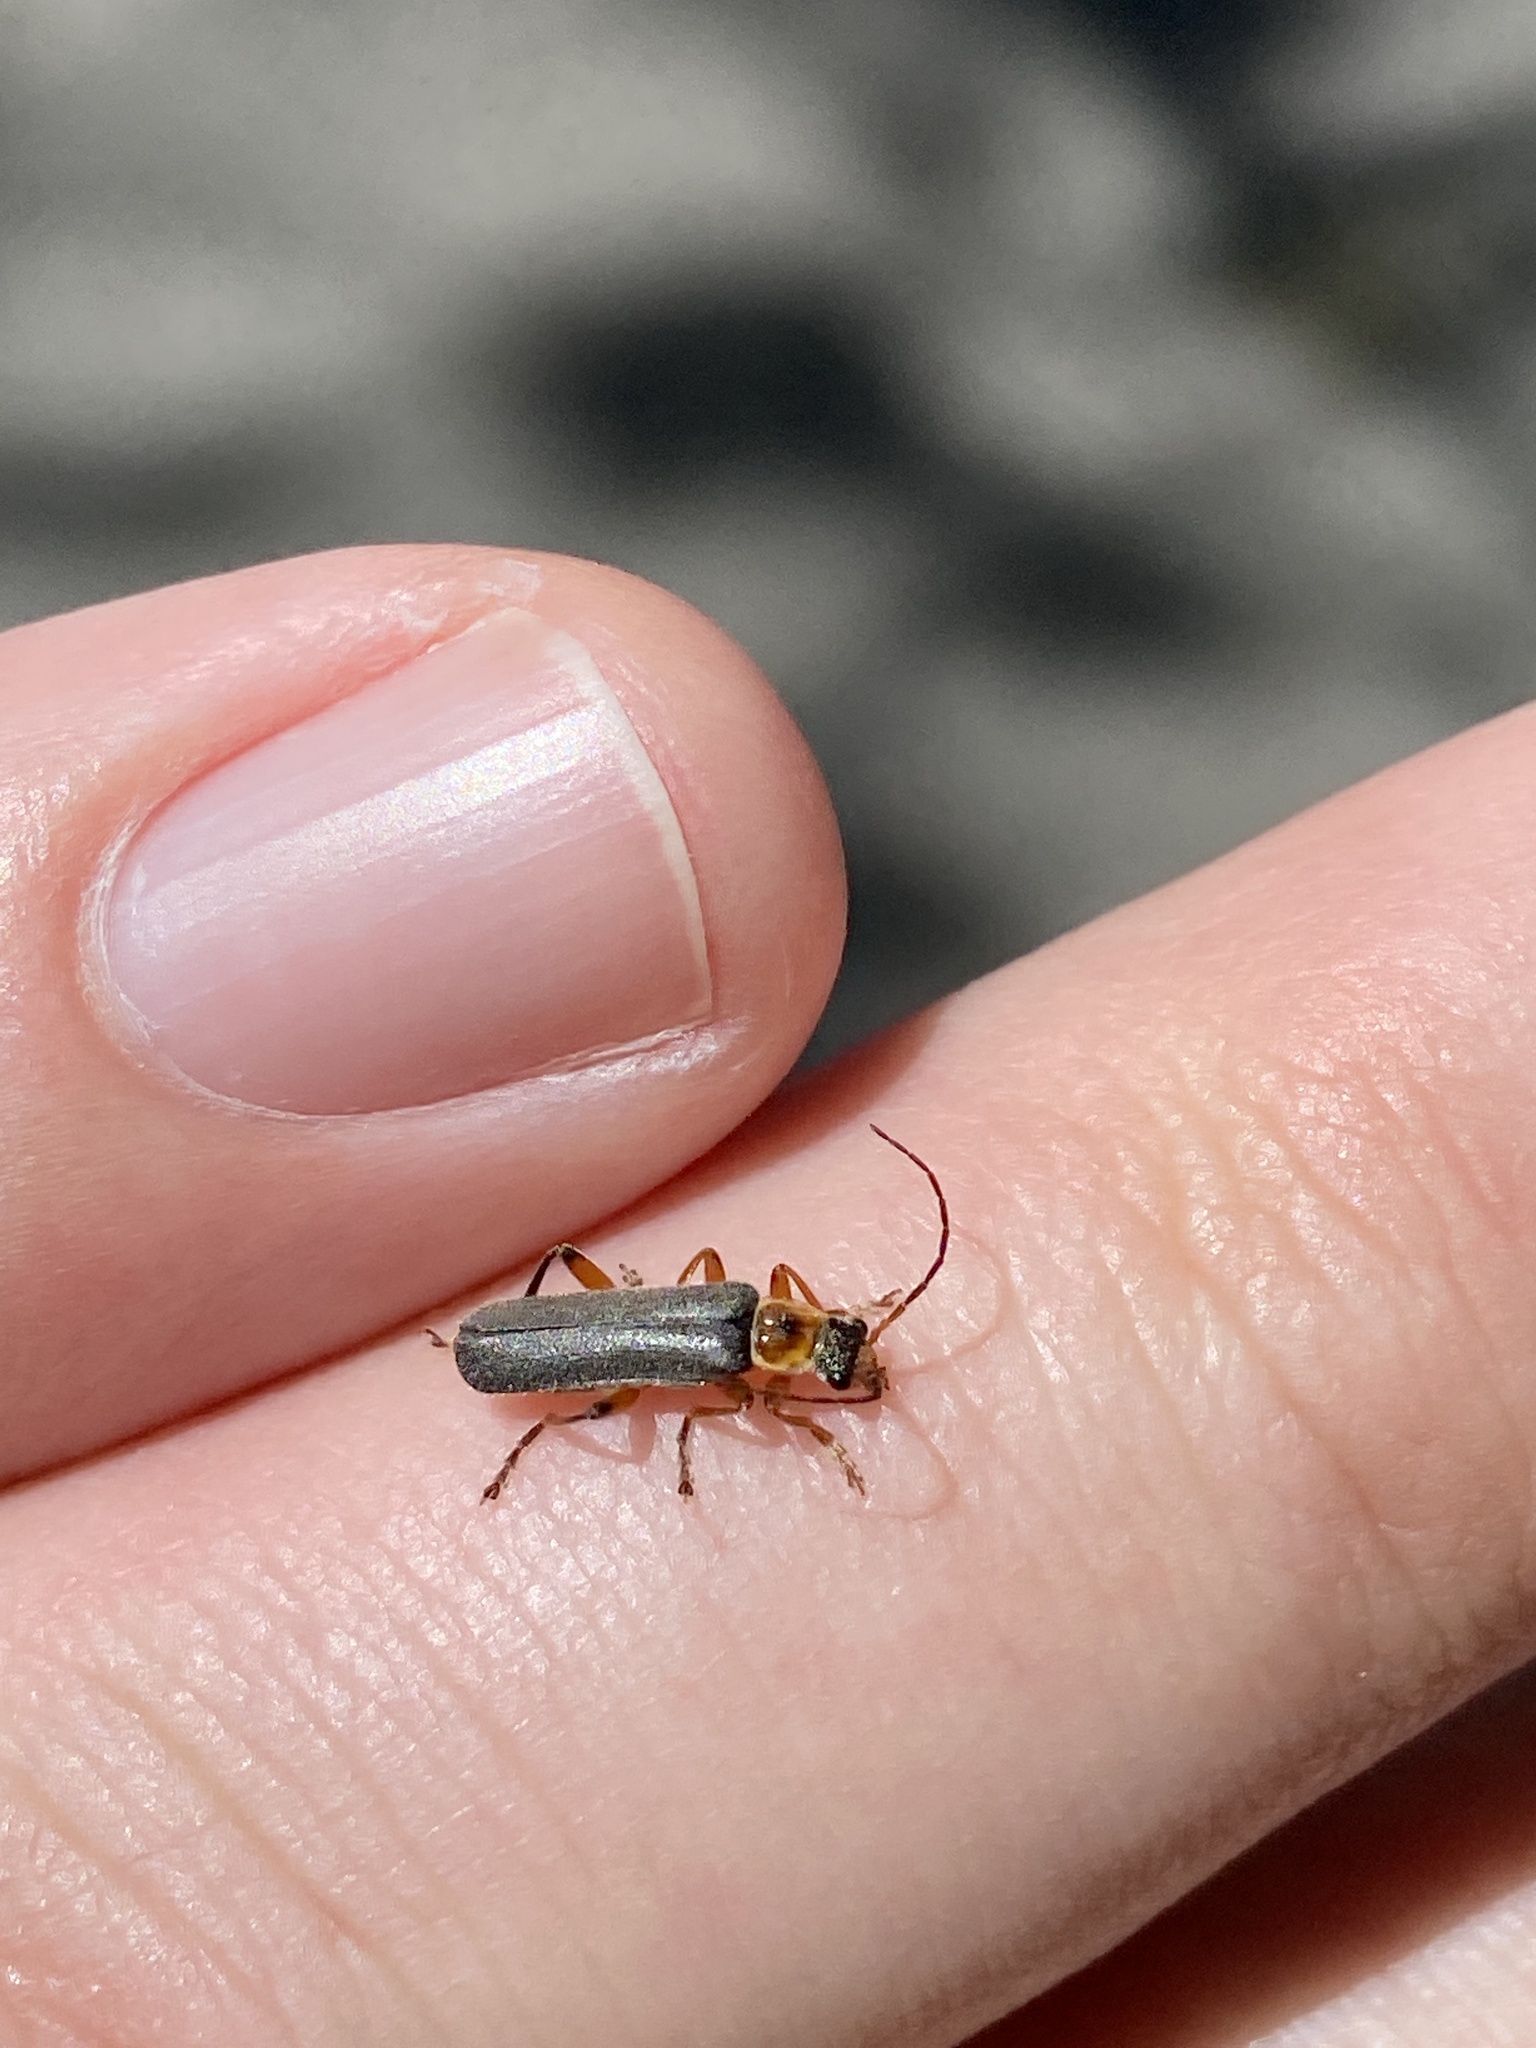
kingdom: Animalia
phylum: Arthropoda
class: Insecta
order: Coleoptera
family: Cantharidae
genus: Cantharis
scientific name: Cantharis nigricans
